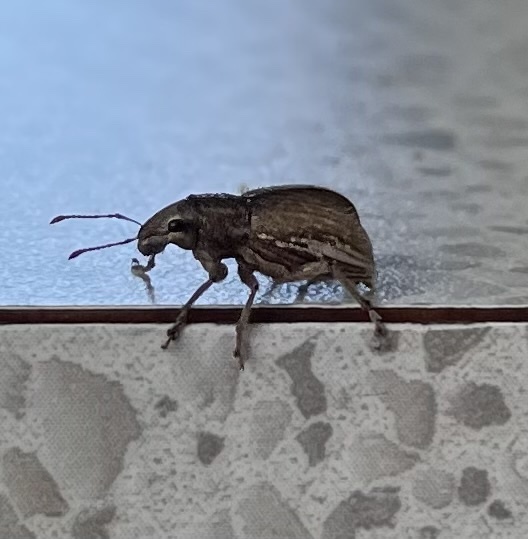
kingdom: Animalia
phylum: Arthropoda
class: Insecta
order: Coleoptera
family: Curculionidae
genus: Naupactus
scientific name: Naupactus leucoloma
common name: Whitefringed beetle
